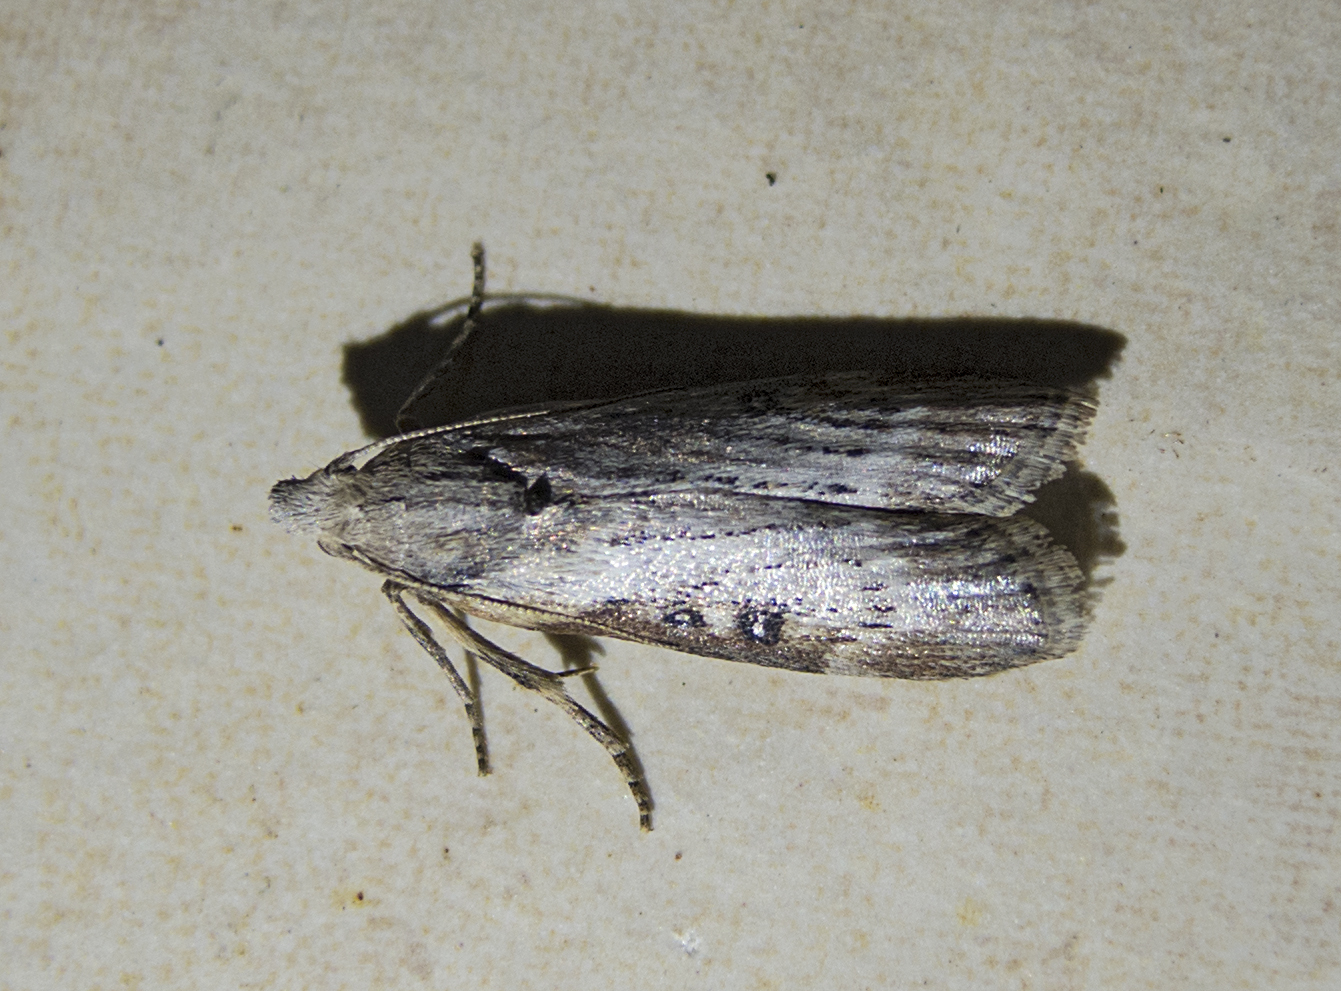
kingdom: Animalia
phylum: Arthropoda
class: Insecta
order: Lepidoptera
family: Pyralidae
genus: Lamoria
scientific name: Lamoria anella
